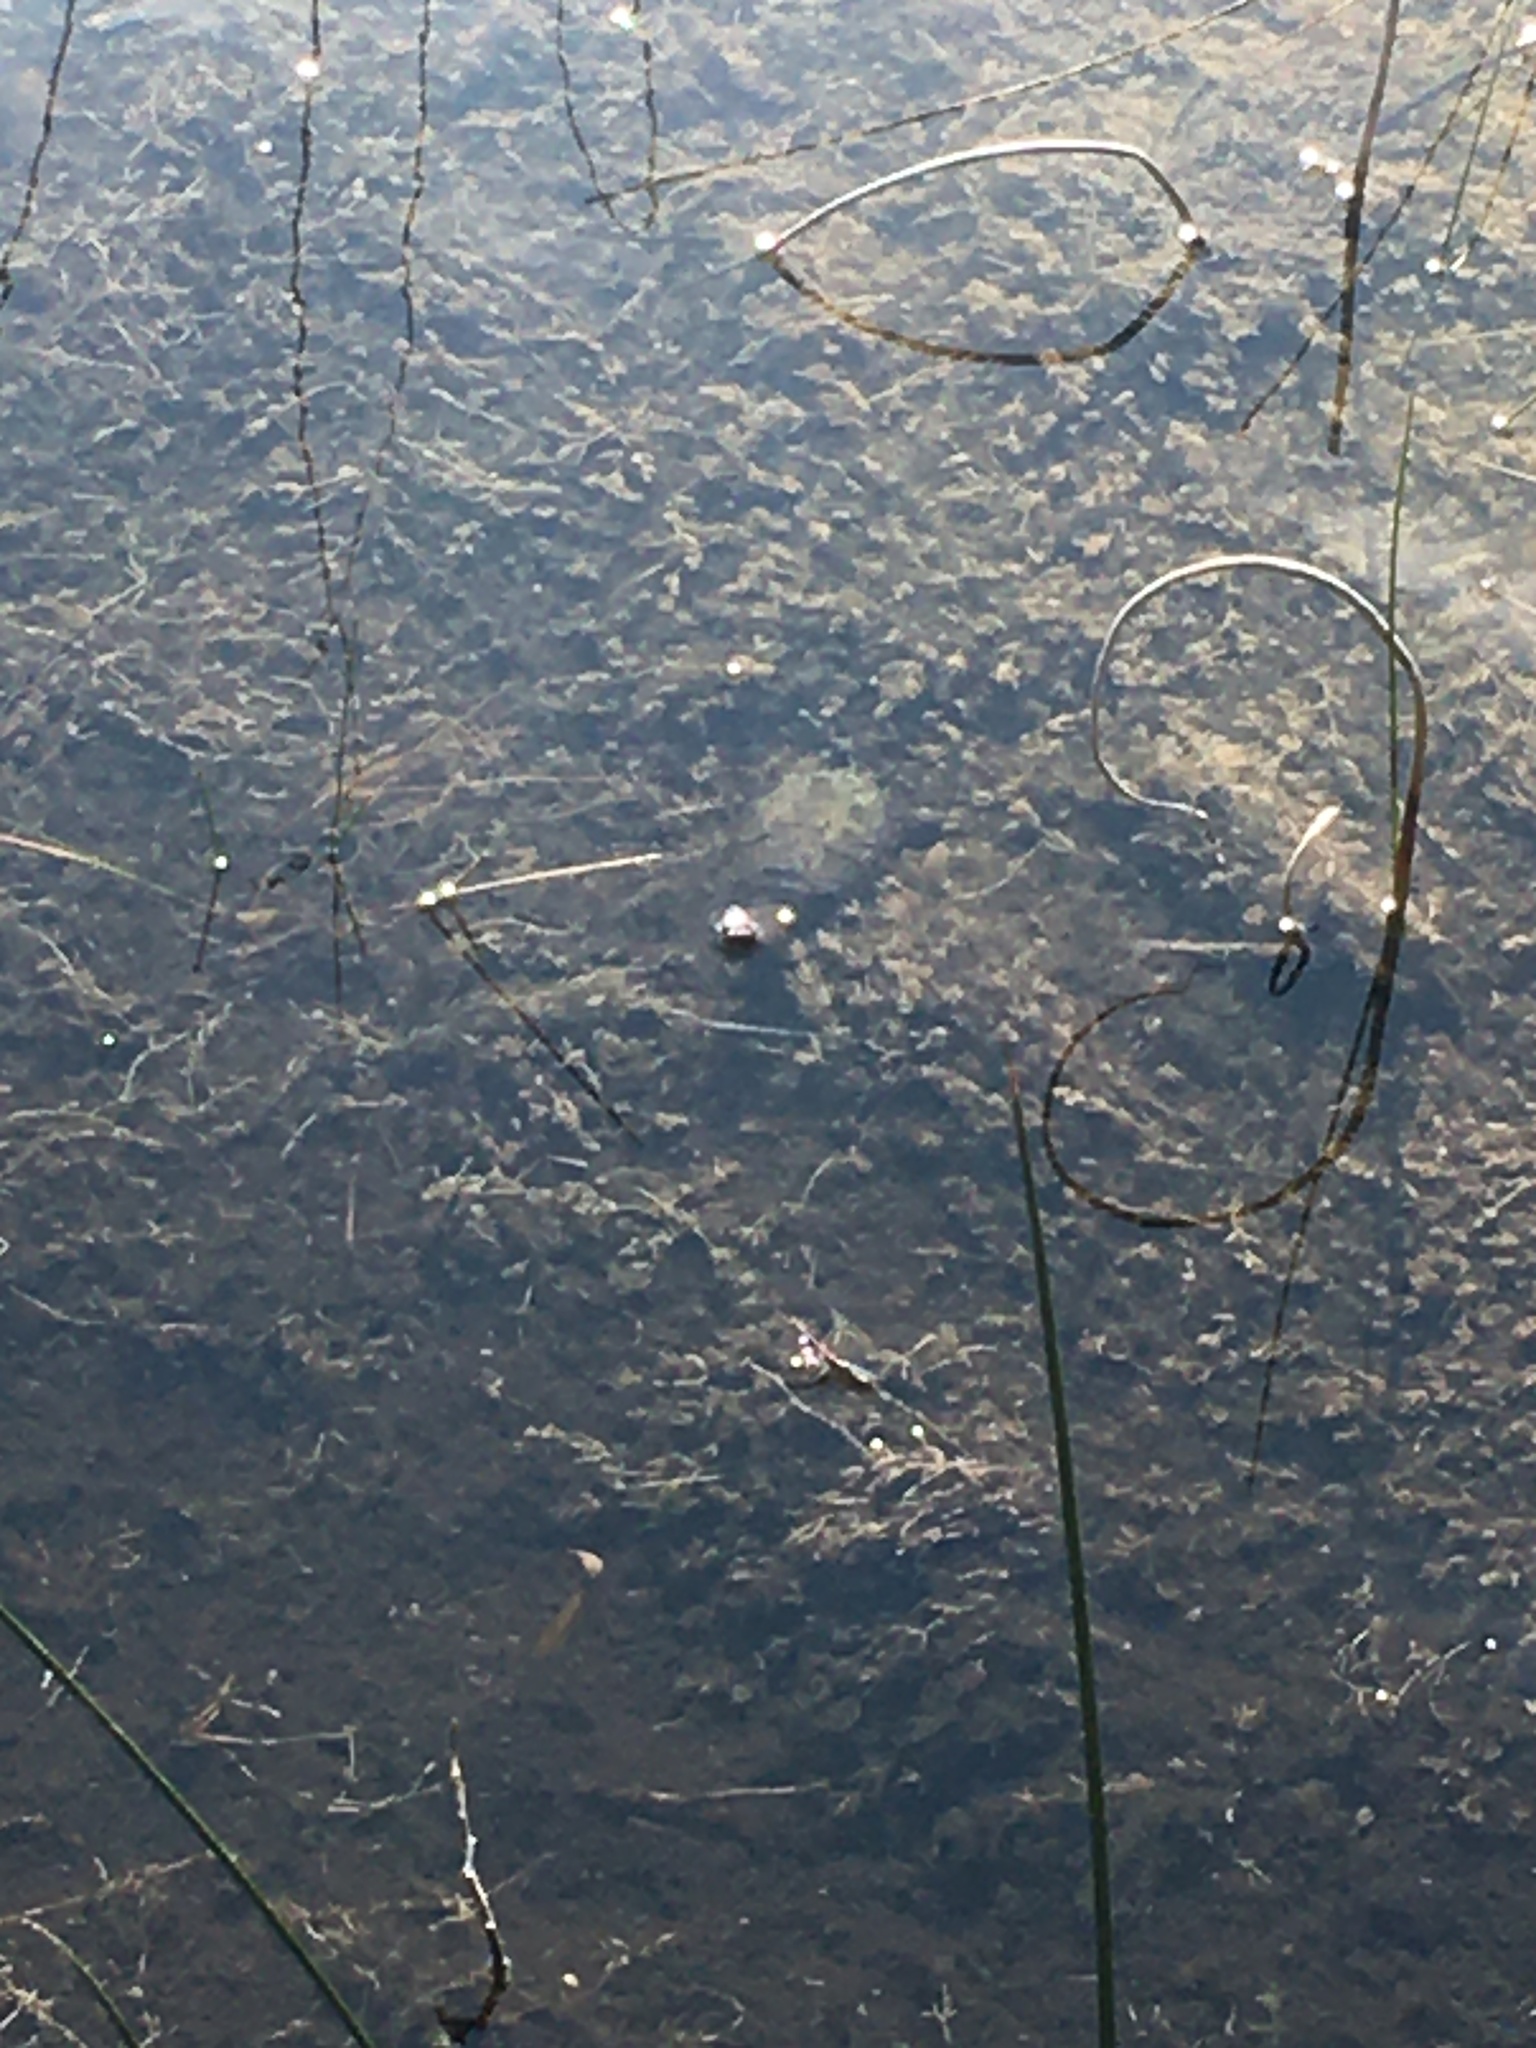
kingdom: Animalia
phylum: Chordata
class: Testudines
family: Chelydridae
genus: Chelydra
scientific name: Chelydra serpentina
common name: Common snapping turtle
